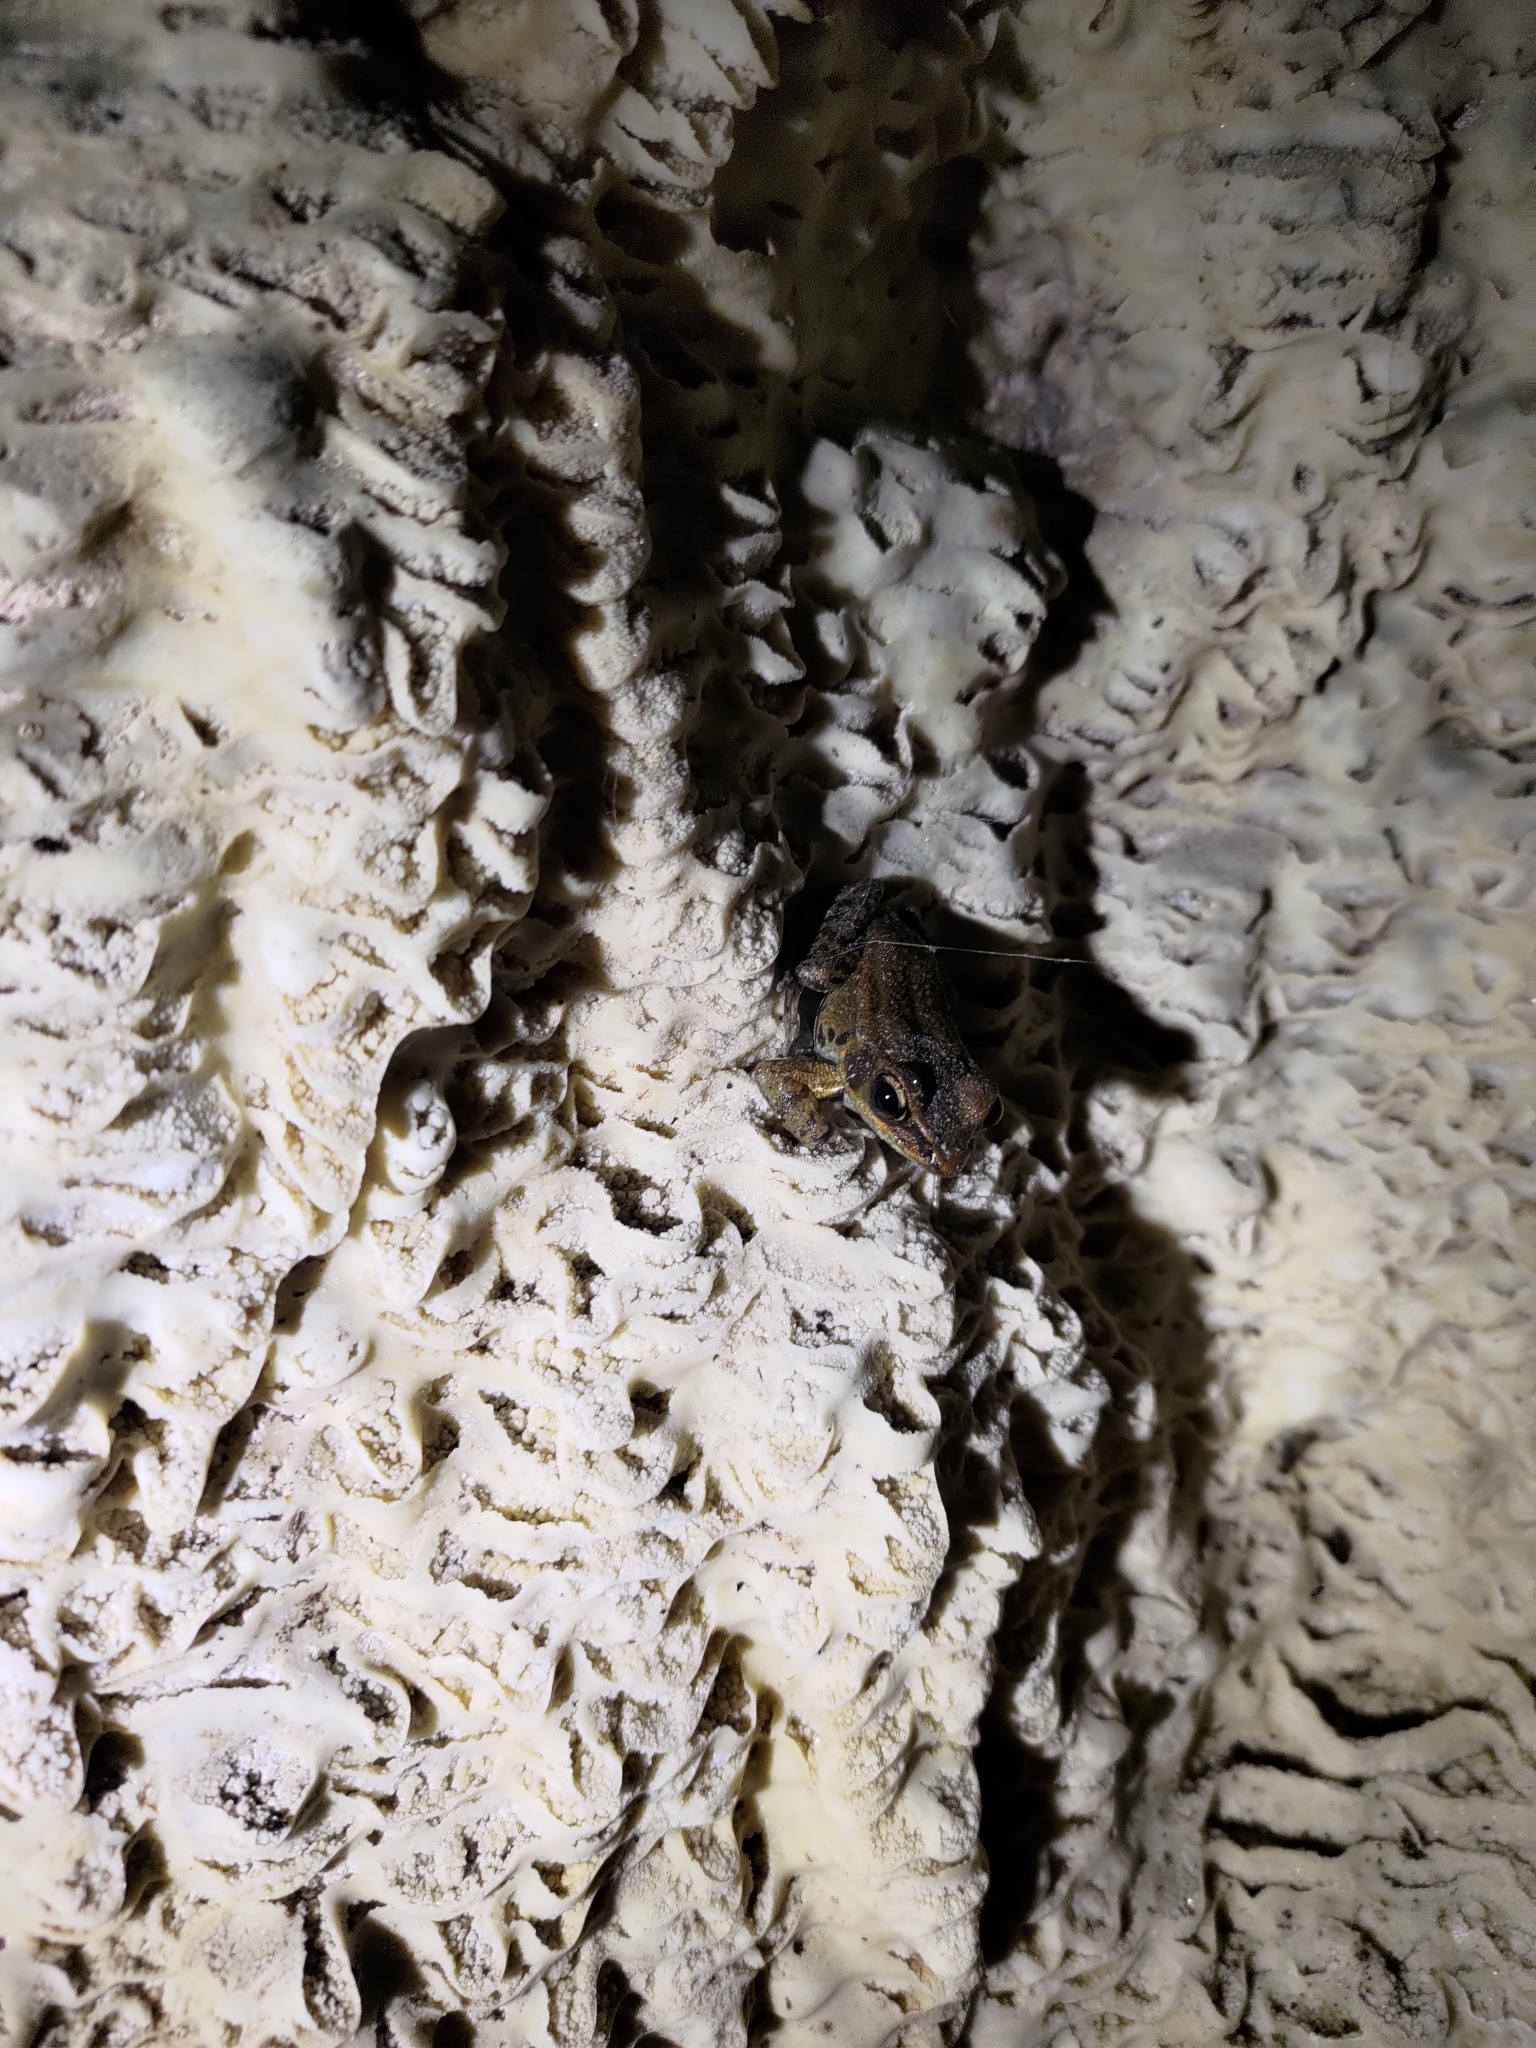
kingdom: Animalia
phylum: Chordata
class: Amphibia
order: Anura
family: Ranidae
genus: Hylarana
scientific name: Hylarana latouchii
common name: Broad-folded frog
